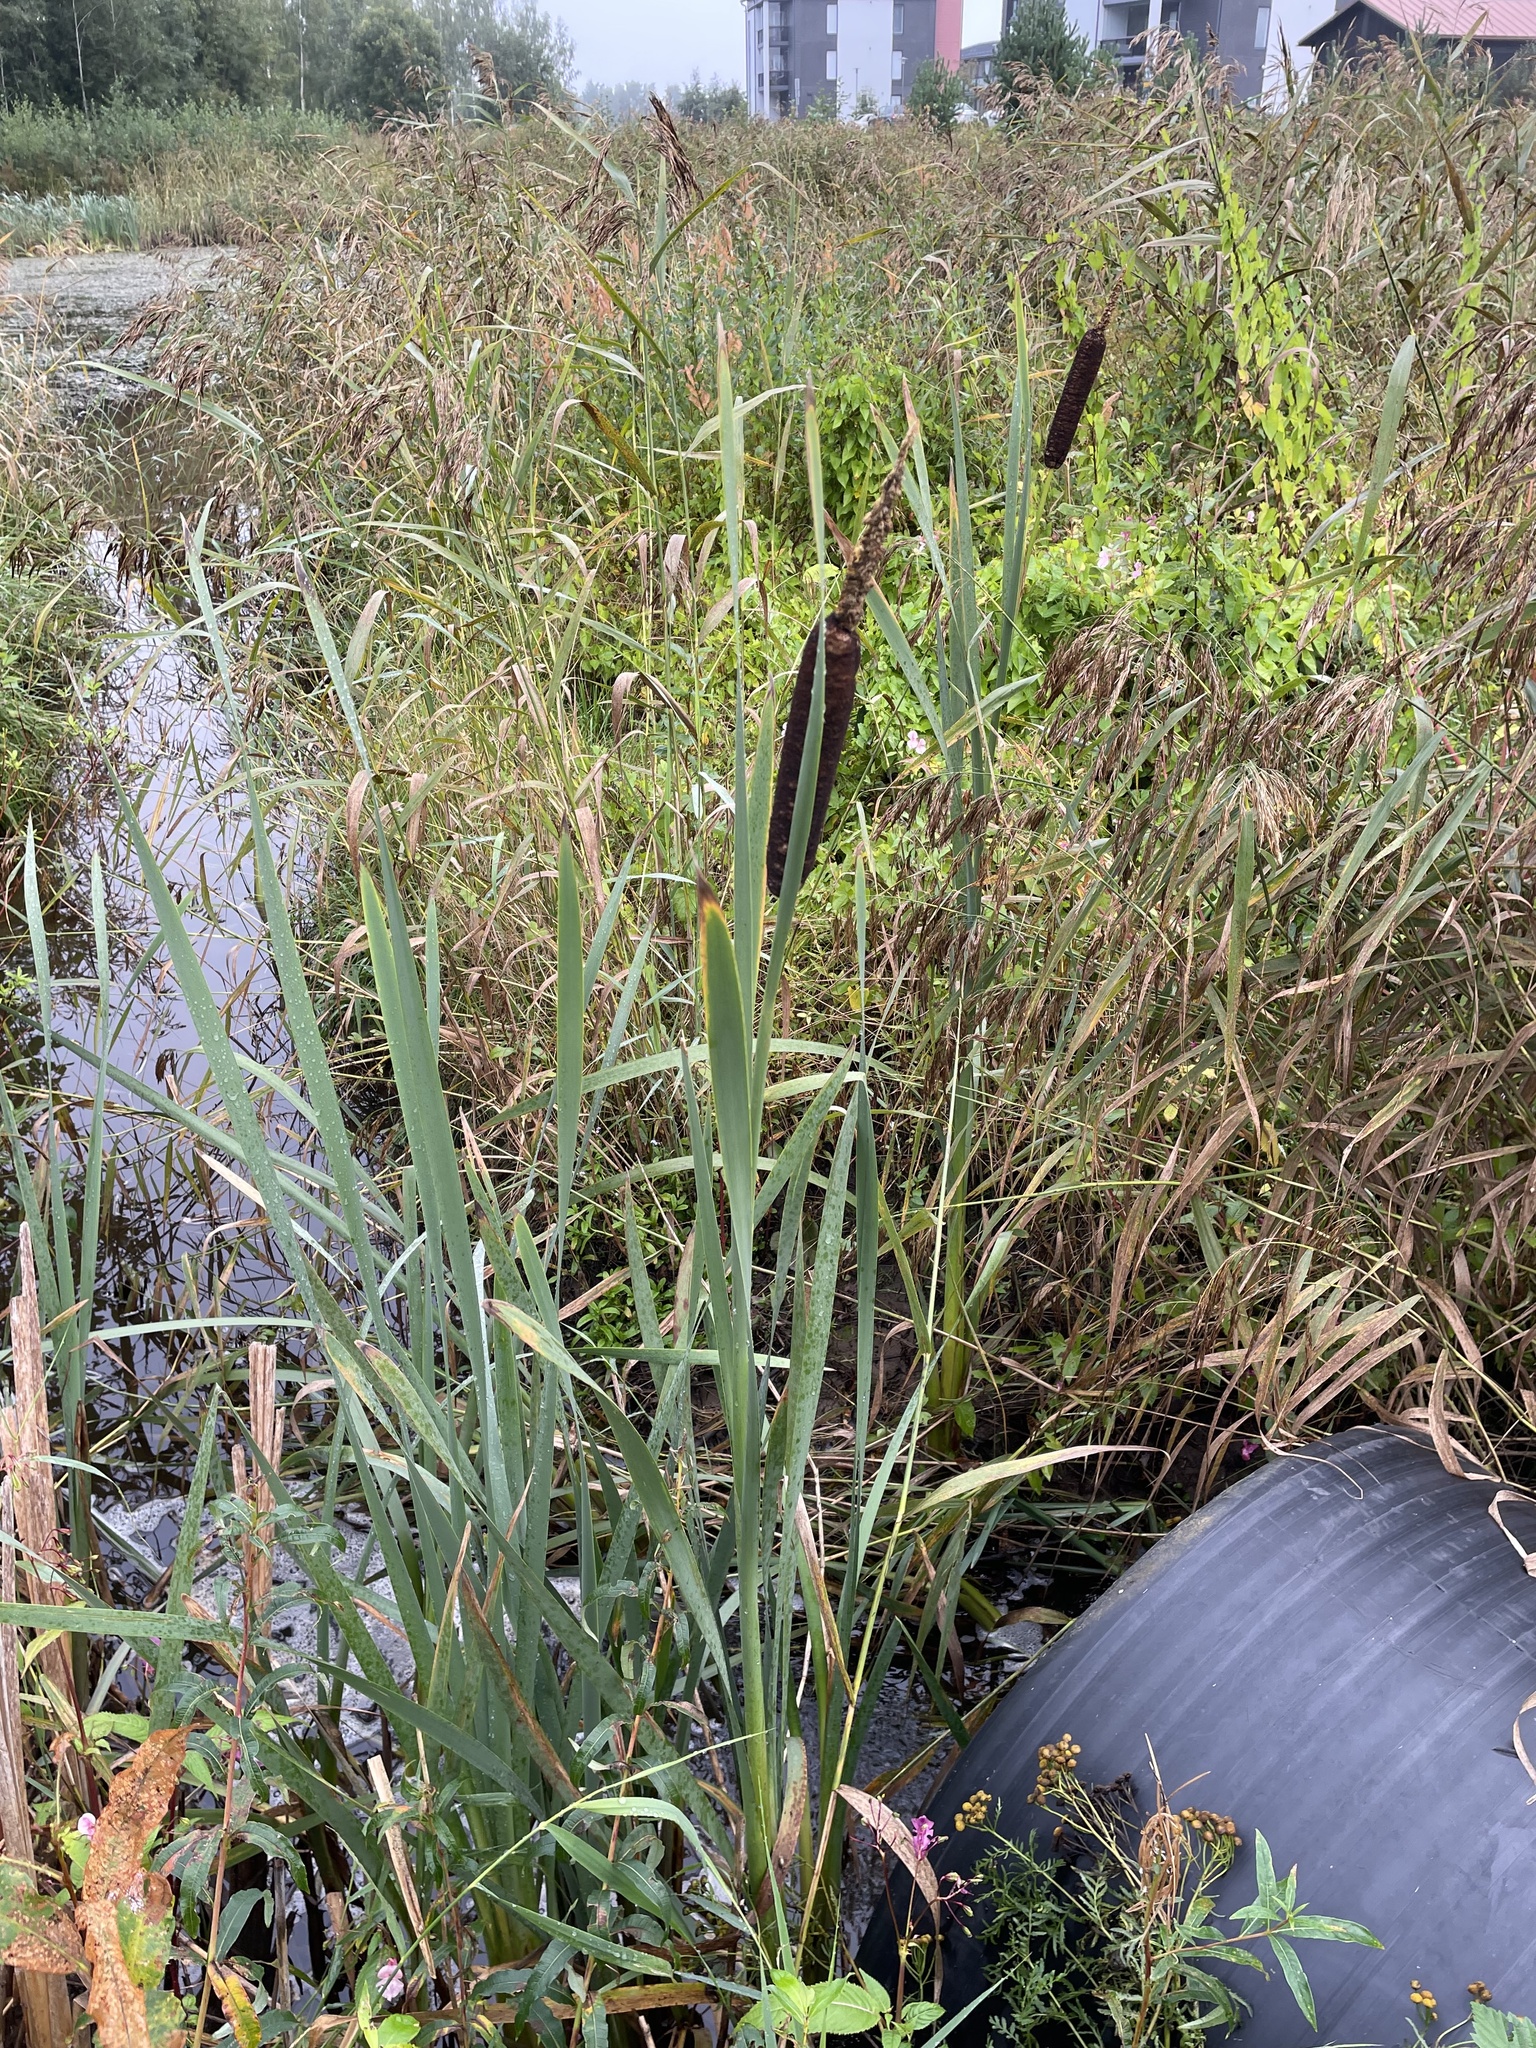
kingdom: Plantae
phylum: Tracheophyta
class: Liliopsida
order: Poales
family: Typhaceae
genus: Typha
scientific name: Typha latifolia
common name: Broadleaf cattail
